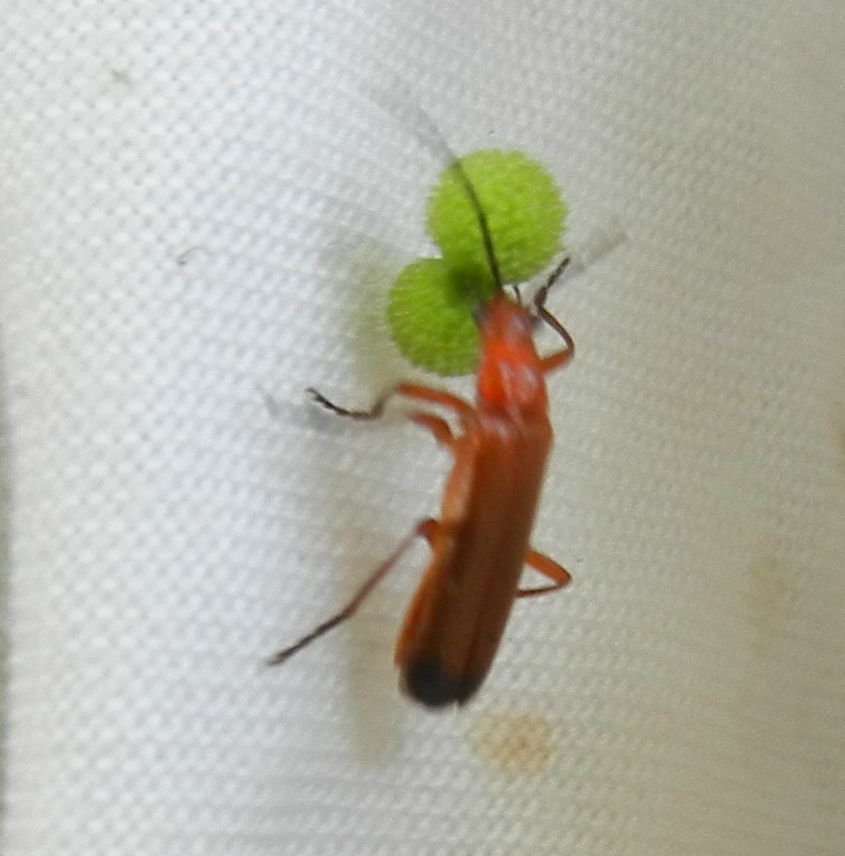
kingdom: Animalia
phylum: Arthropoda
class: Insecta
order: Coleoptera
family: Cantharidae
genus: Rhagonycha
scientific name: Rhagonycha fulva
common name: Common red soldier beetle
